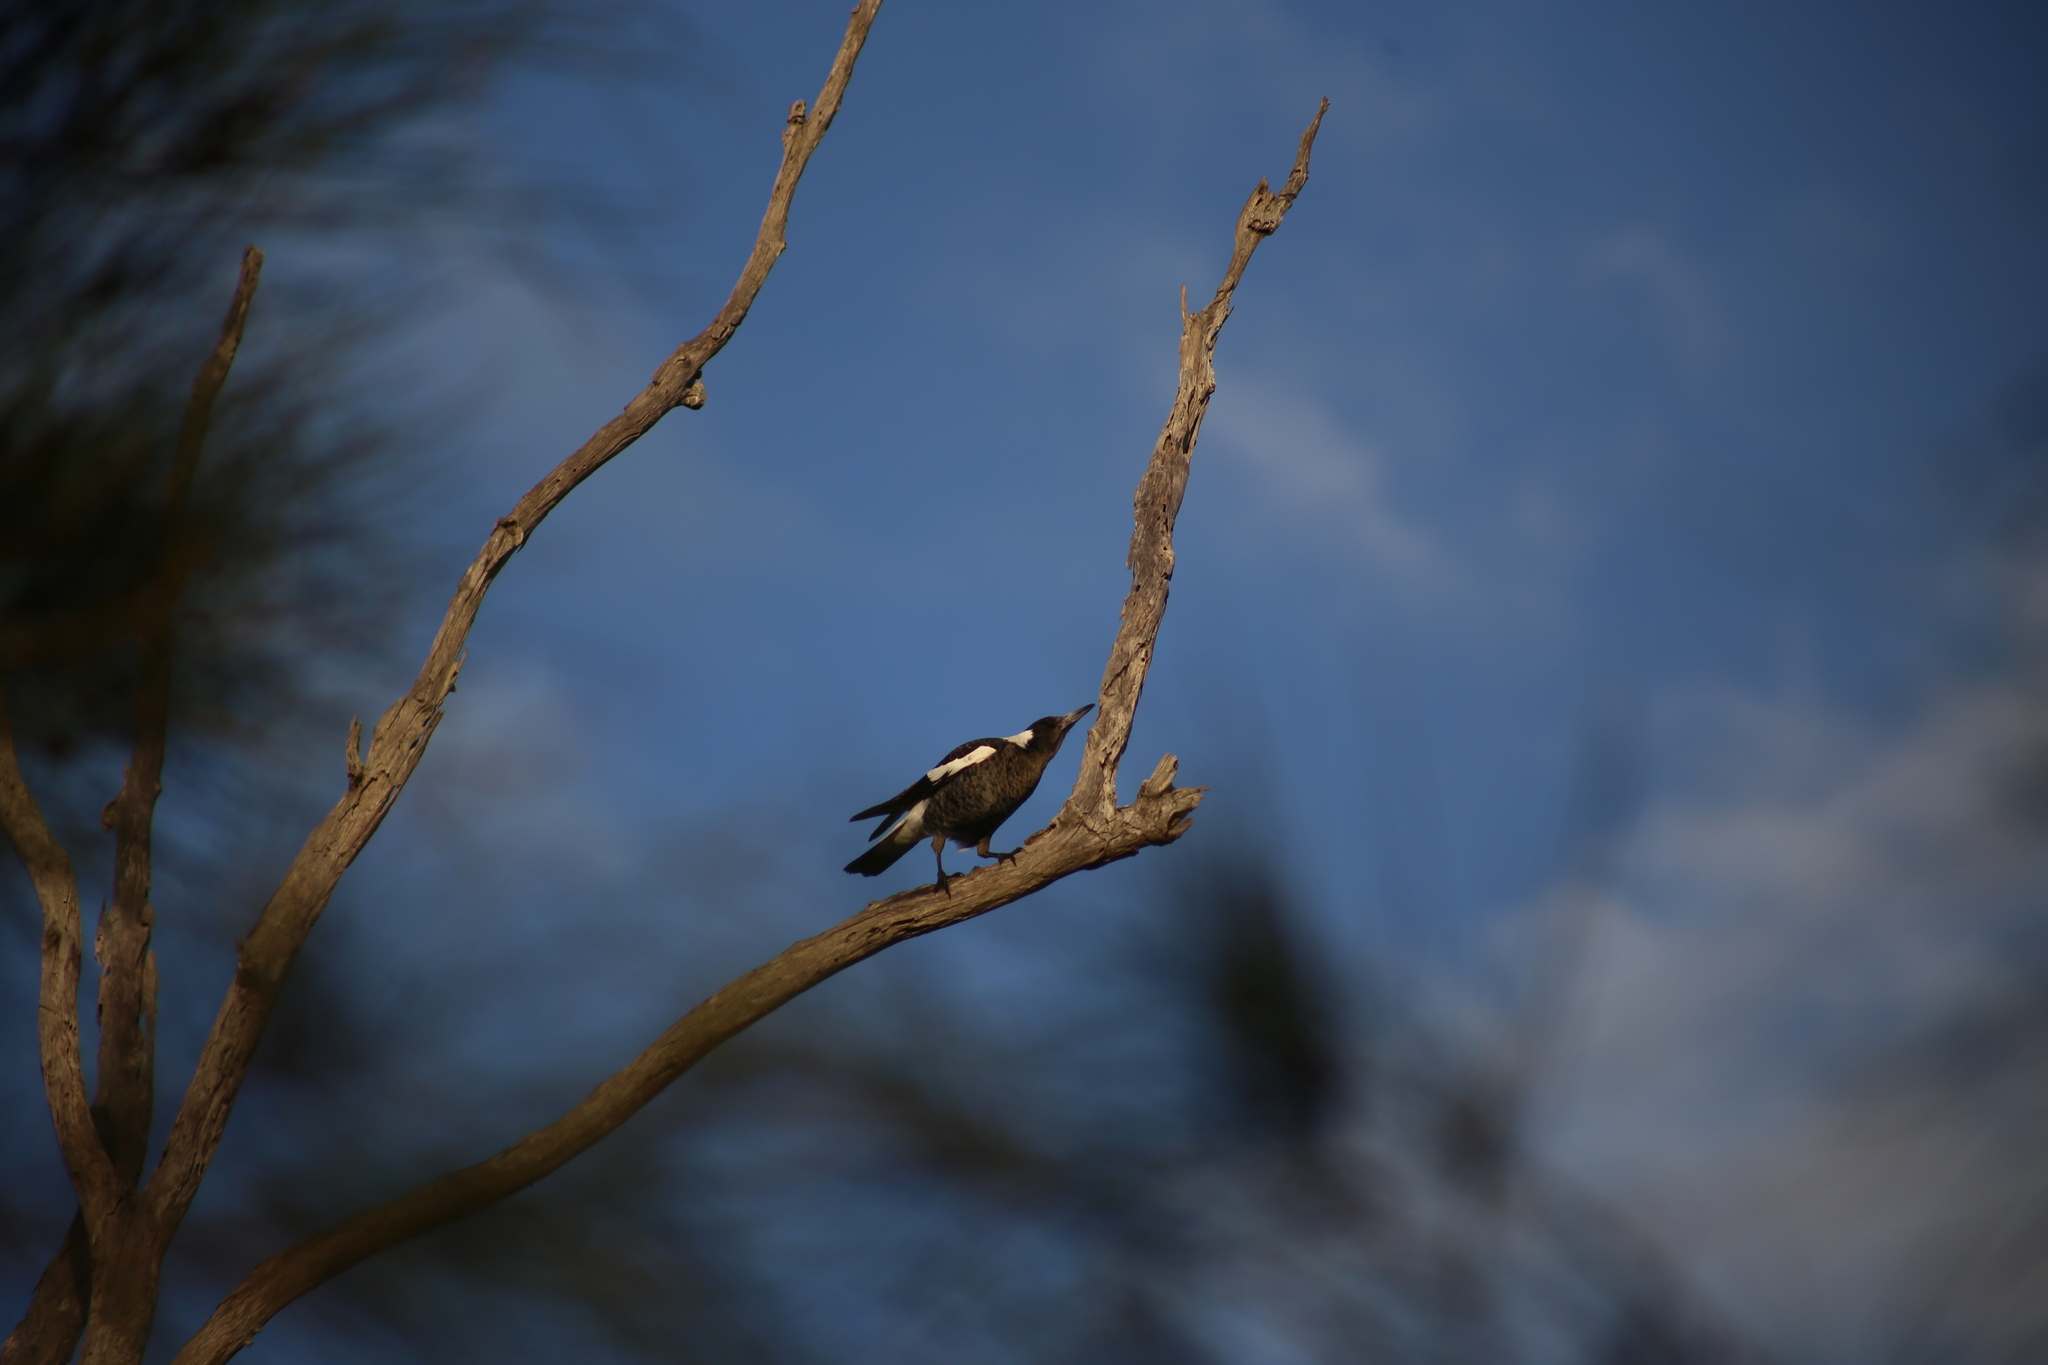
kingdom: Animalia
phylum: Chordata
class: Aves
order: Passeriformes
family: Cracticidae
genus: Gymnorhina
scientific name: Gymnorhina tibicen
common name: Australian magpie
